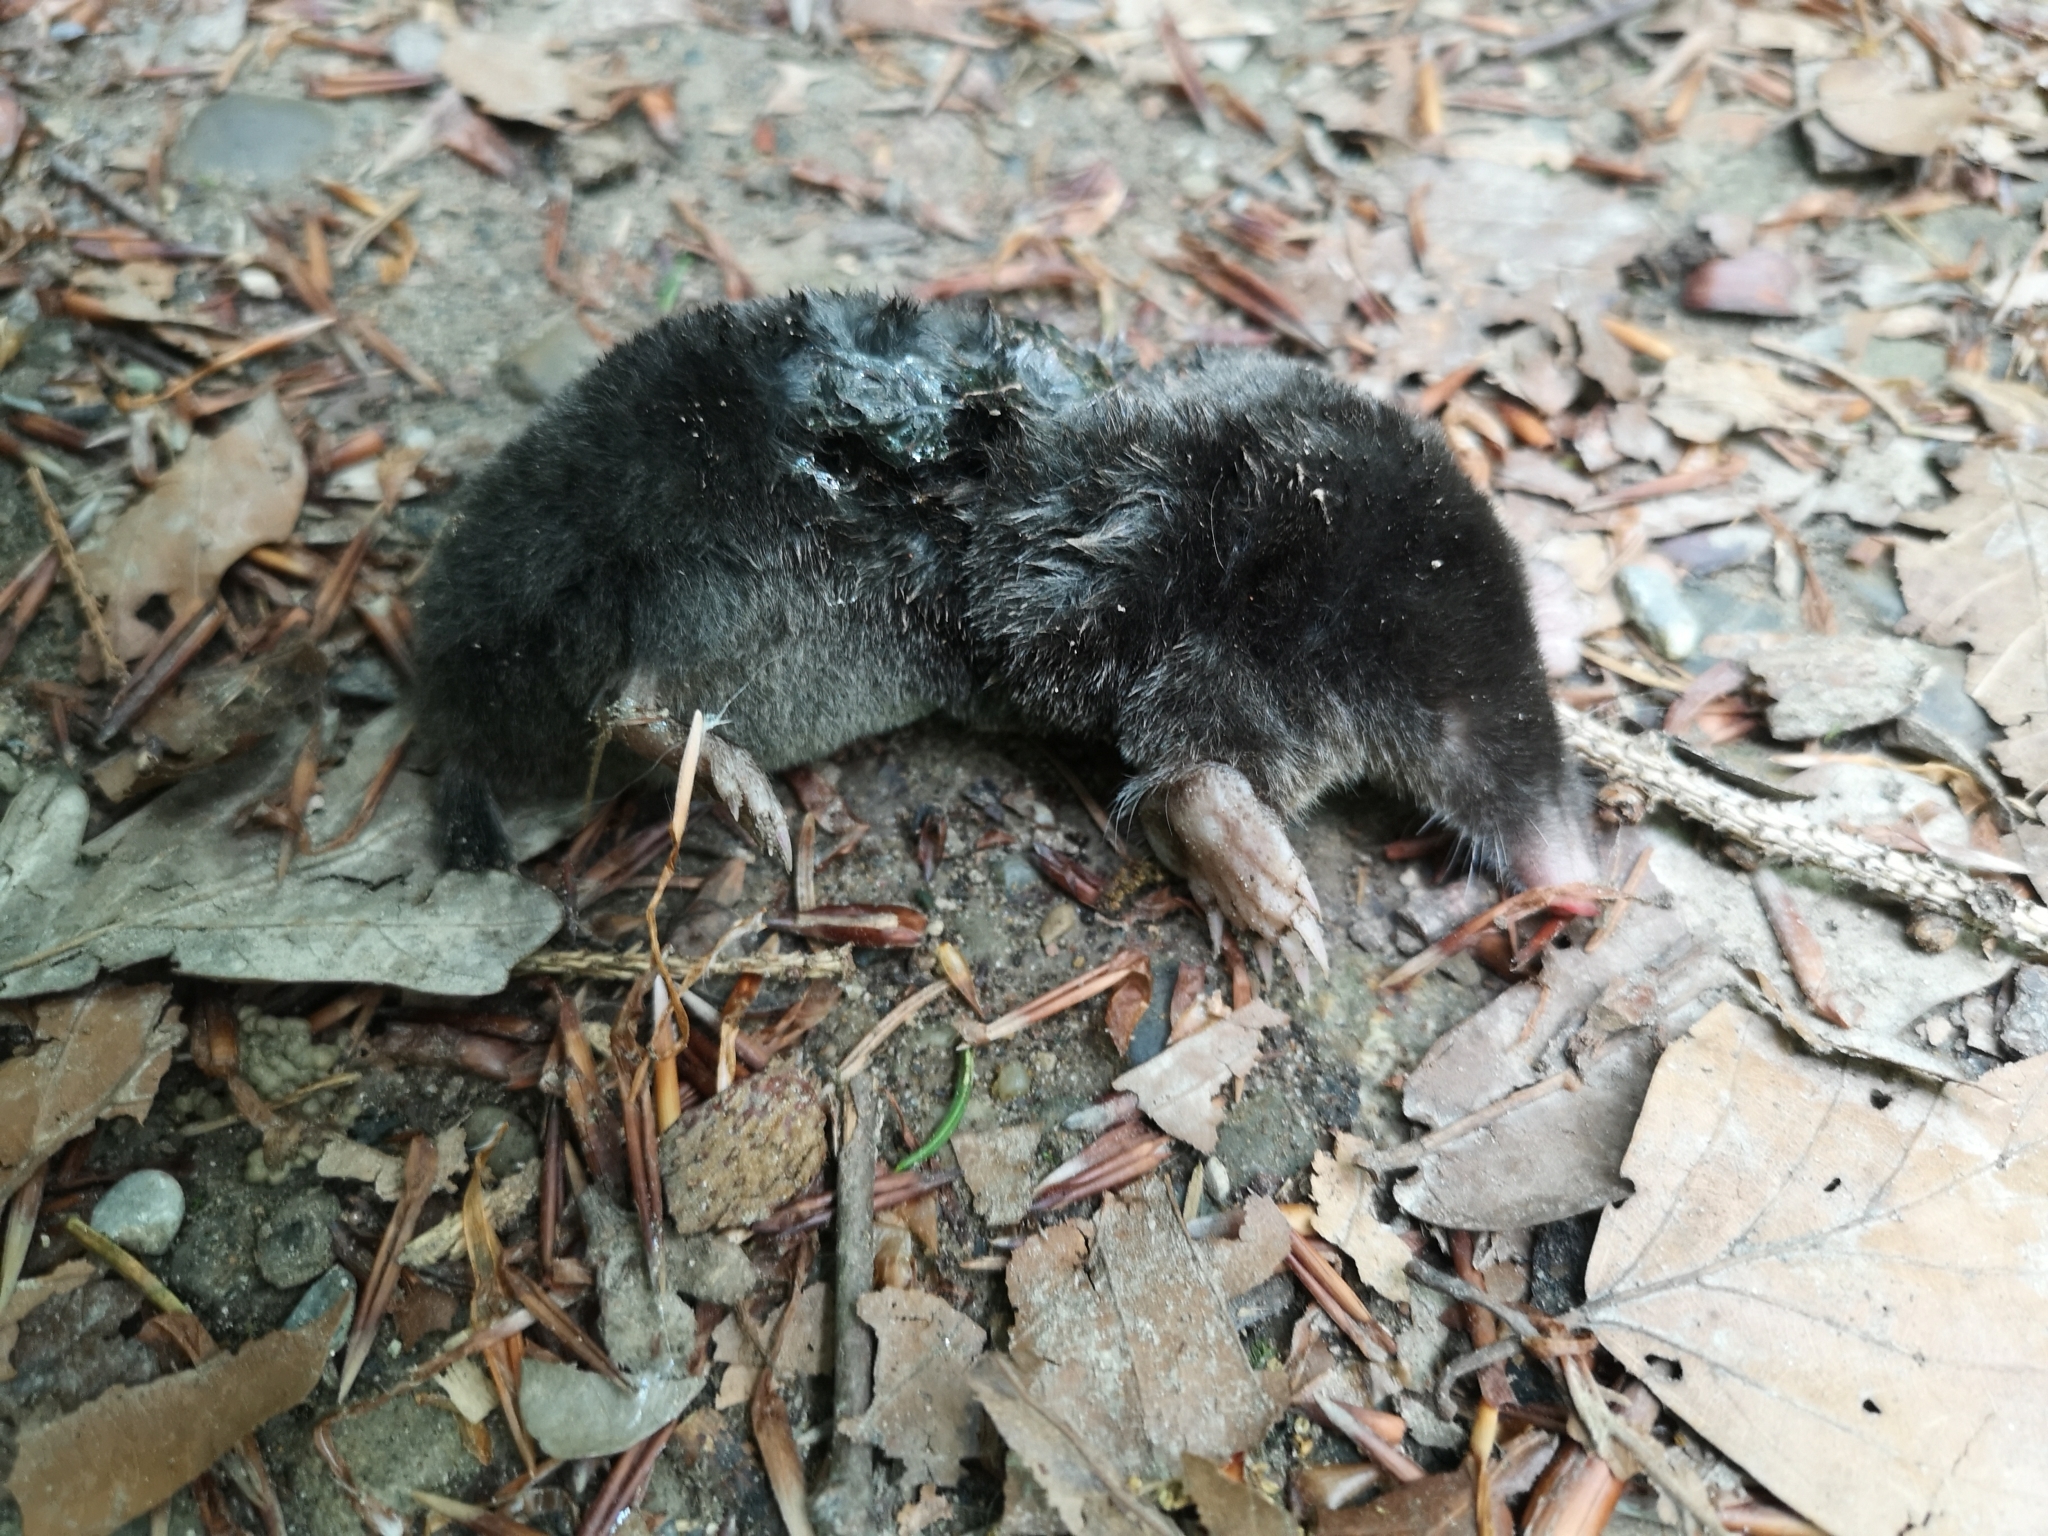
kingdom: Animalia
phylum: Chordata
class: Mammalia
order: Soricomorpha
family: Talpidae
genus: Talpa
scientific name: Talpa europaea
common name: European mole
